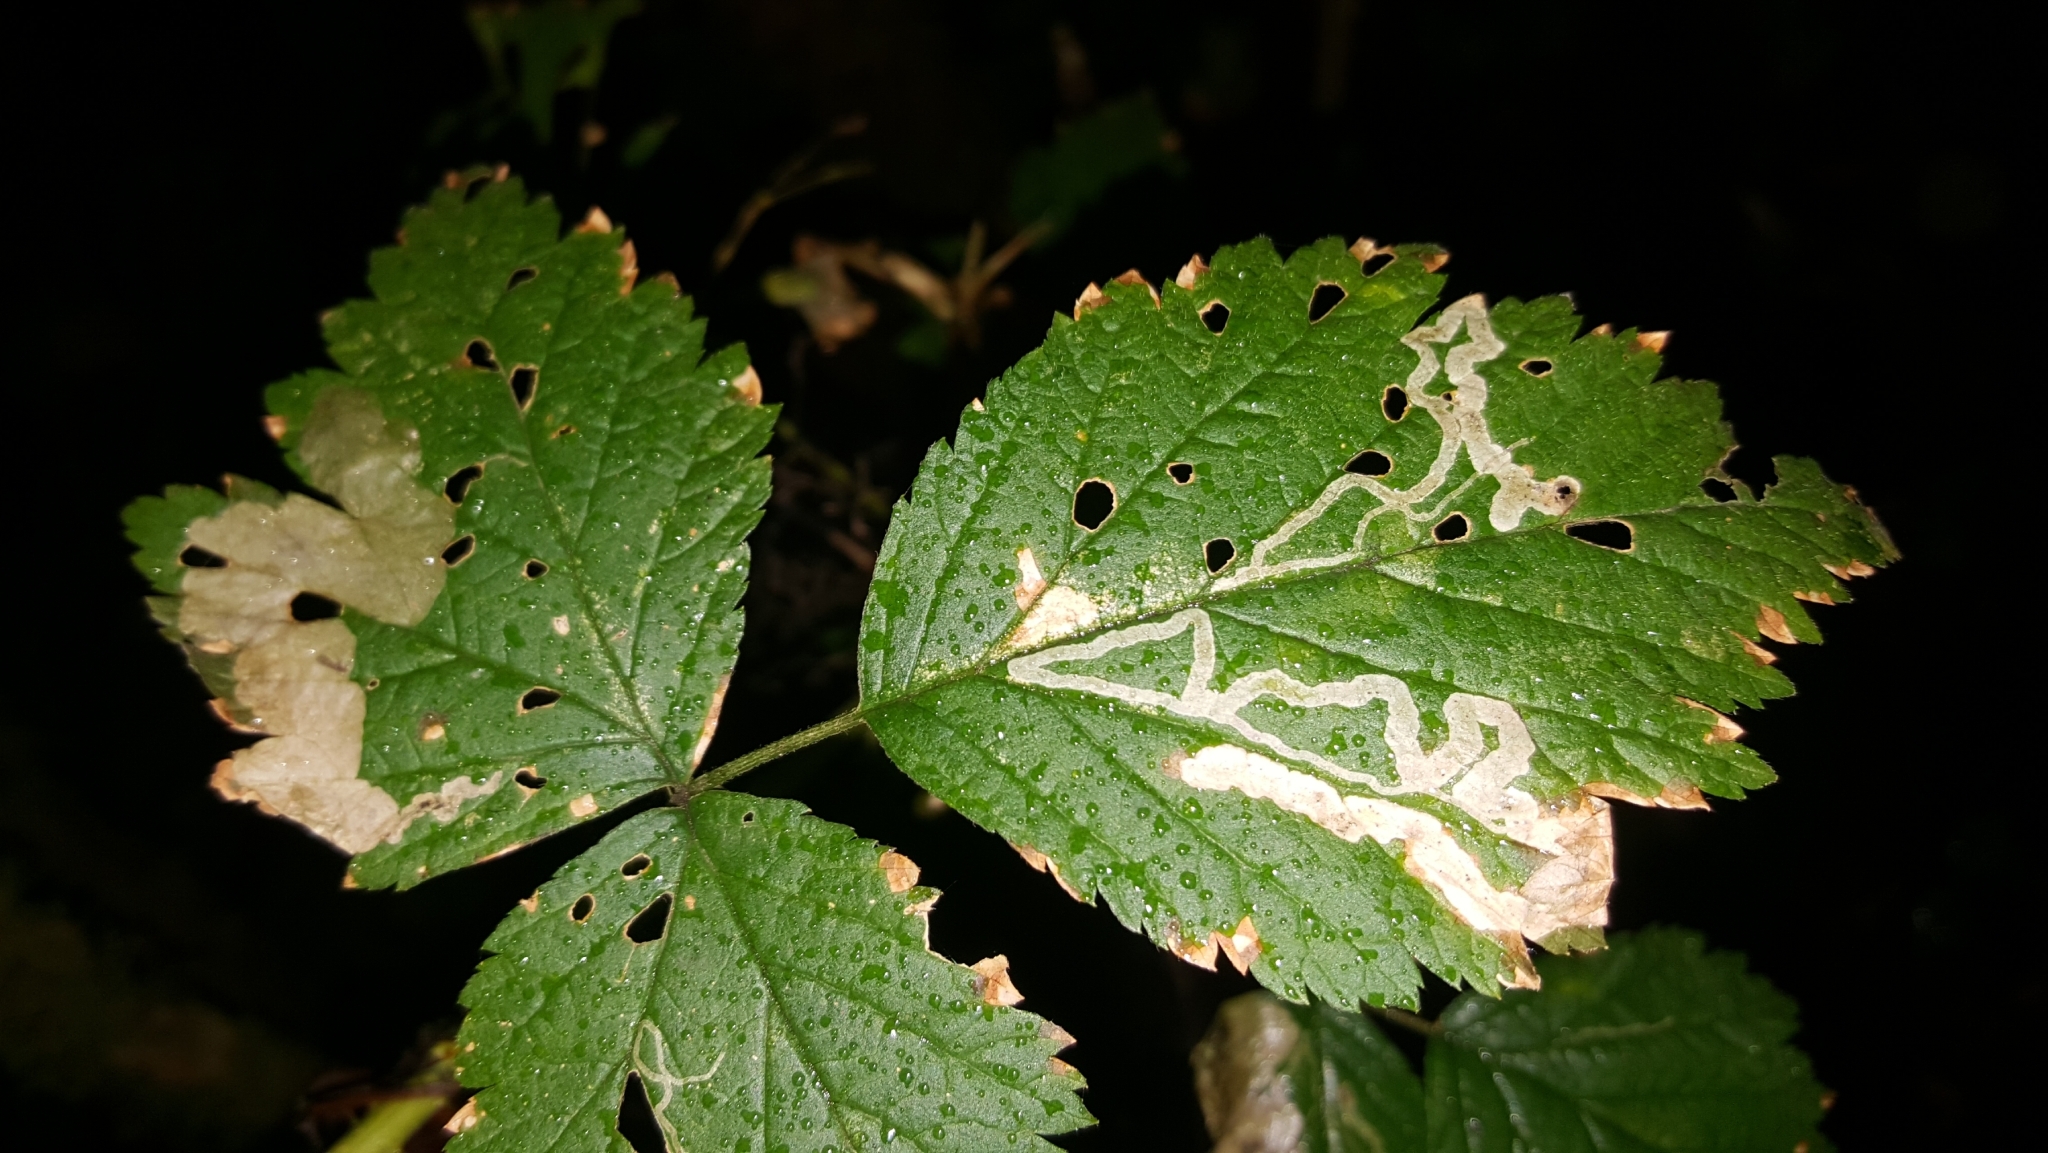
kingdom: Animalia
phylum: Arthropoda
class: Insecta
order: Diptera
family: Agromyzidae
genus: Agromyza
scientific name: Agromyza vockerothi
